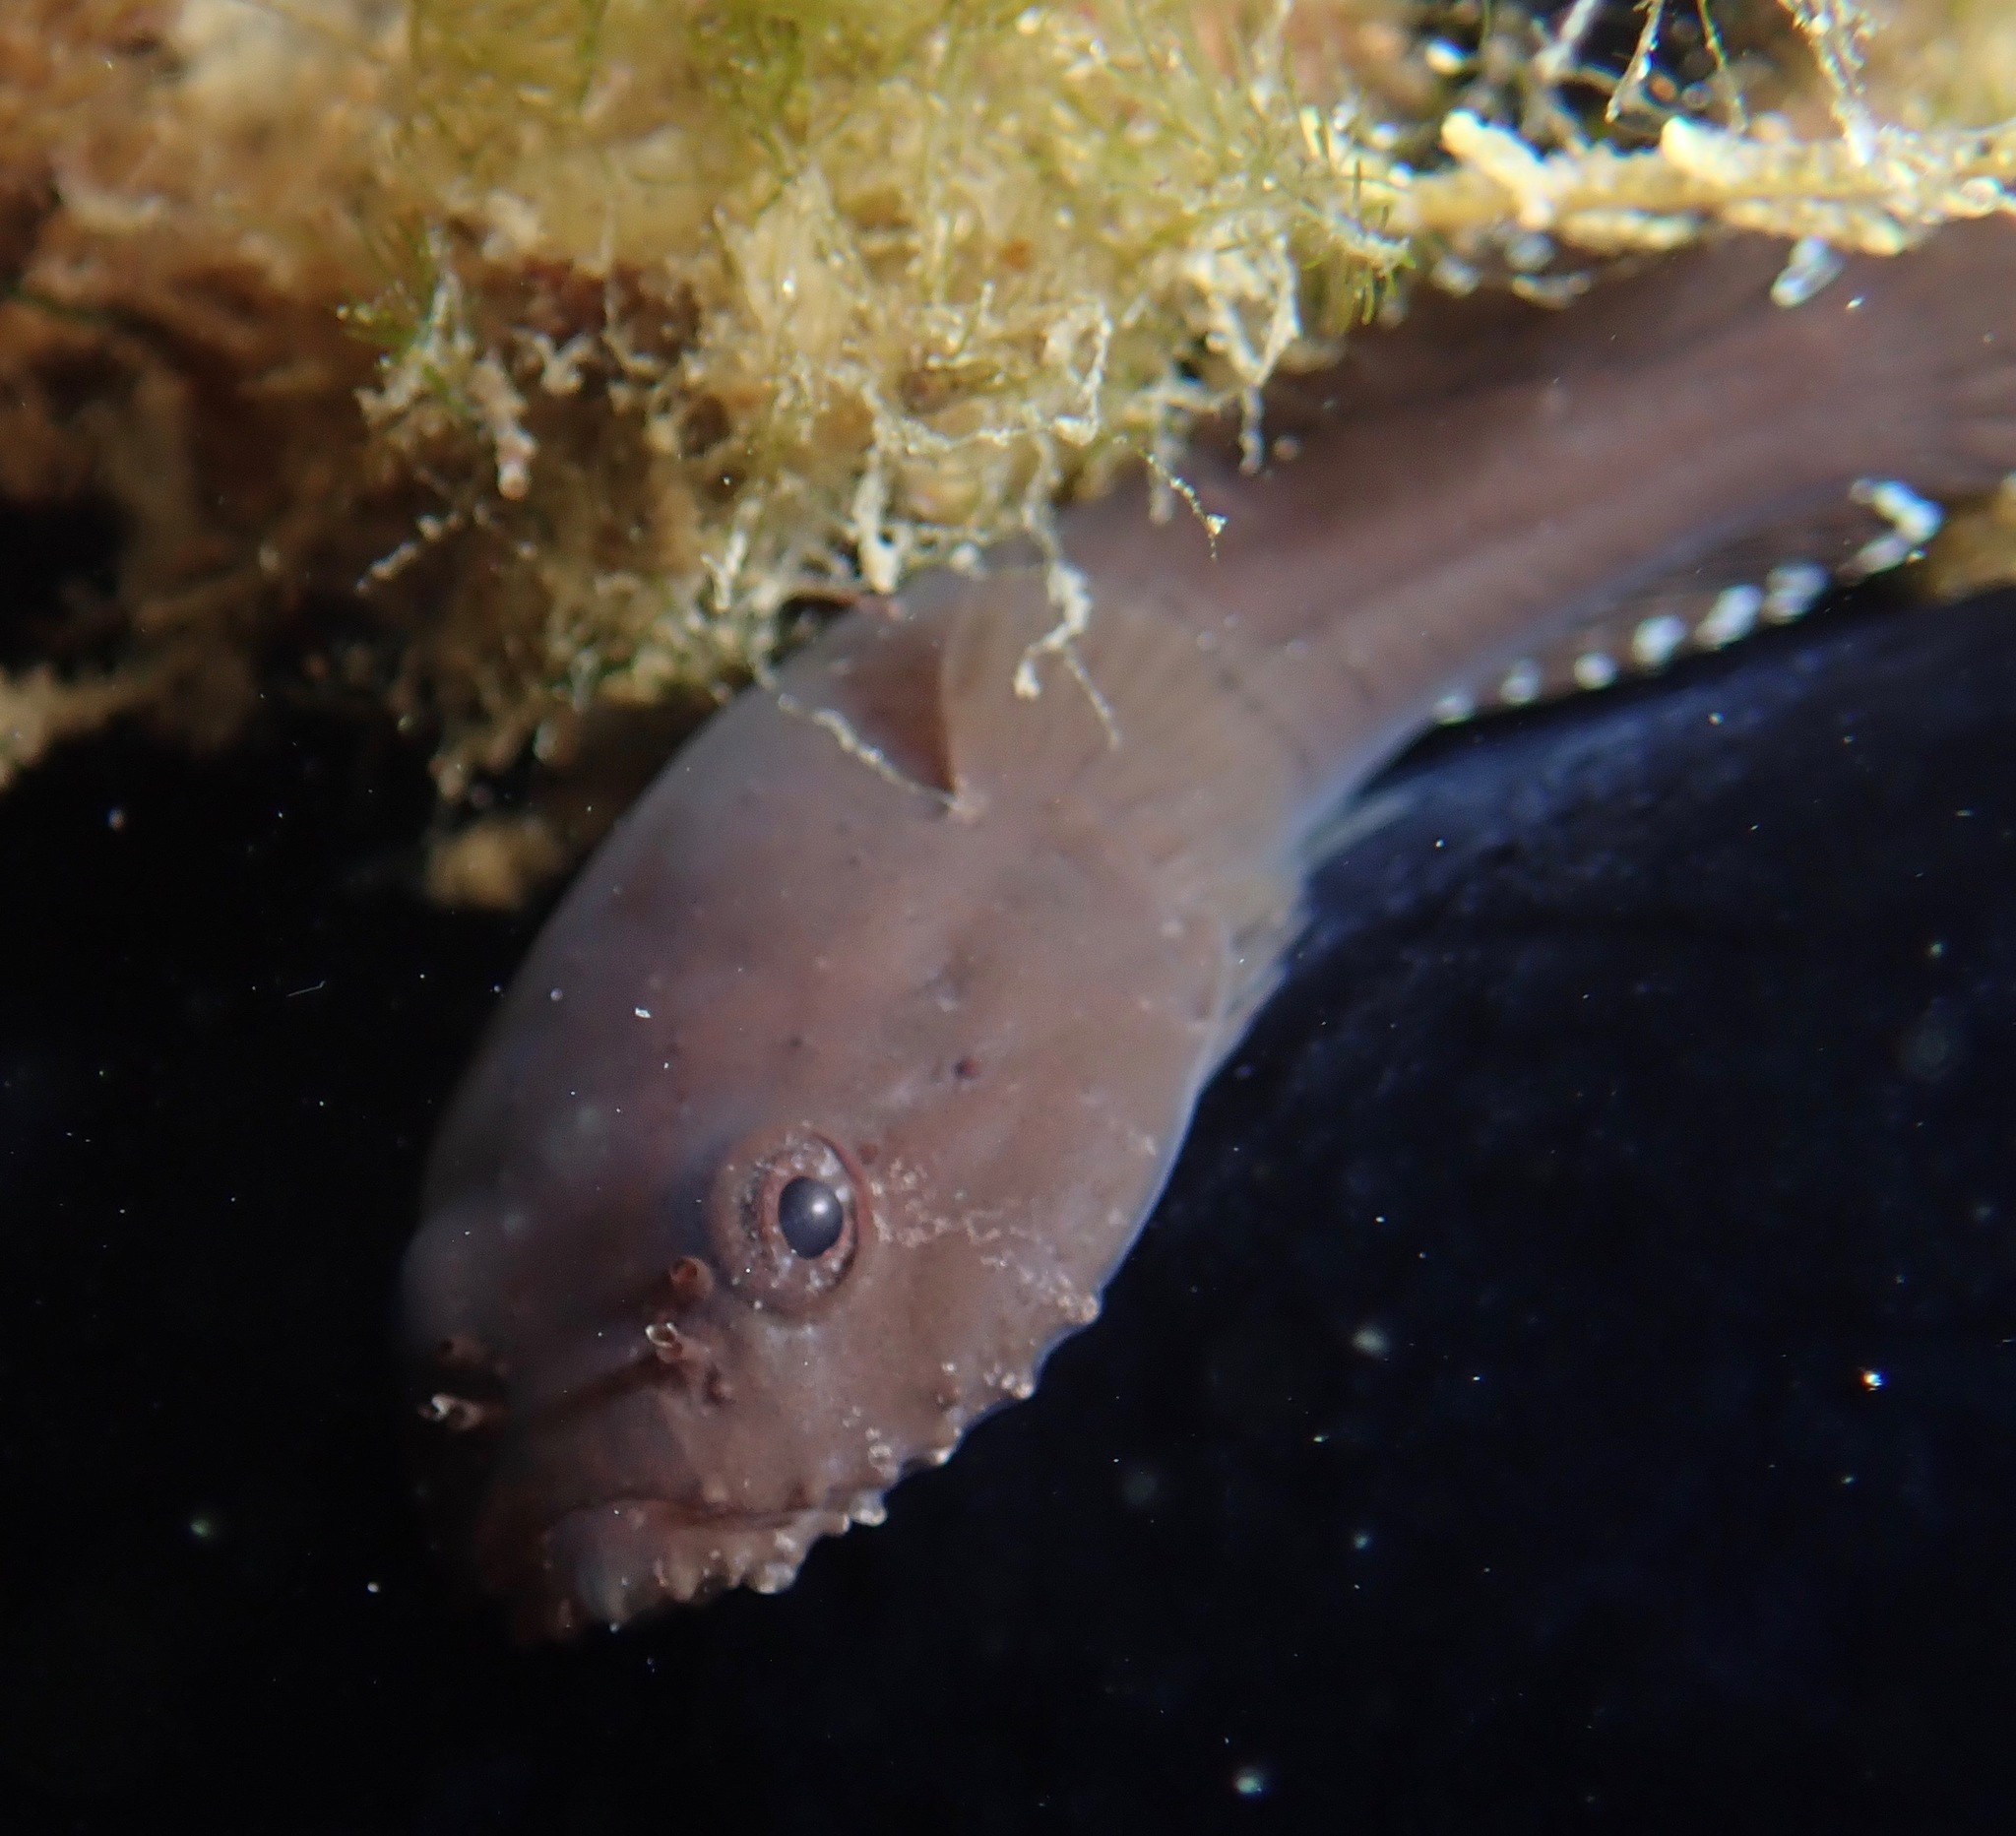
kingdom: Animalia
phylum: Chordata
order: Gobiesociformes
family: Gobiesocidae
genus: Gobiesox
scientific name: Gobiesox strumosus
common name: Skilletfish
